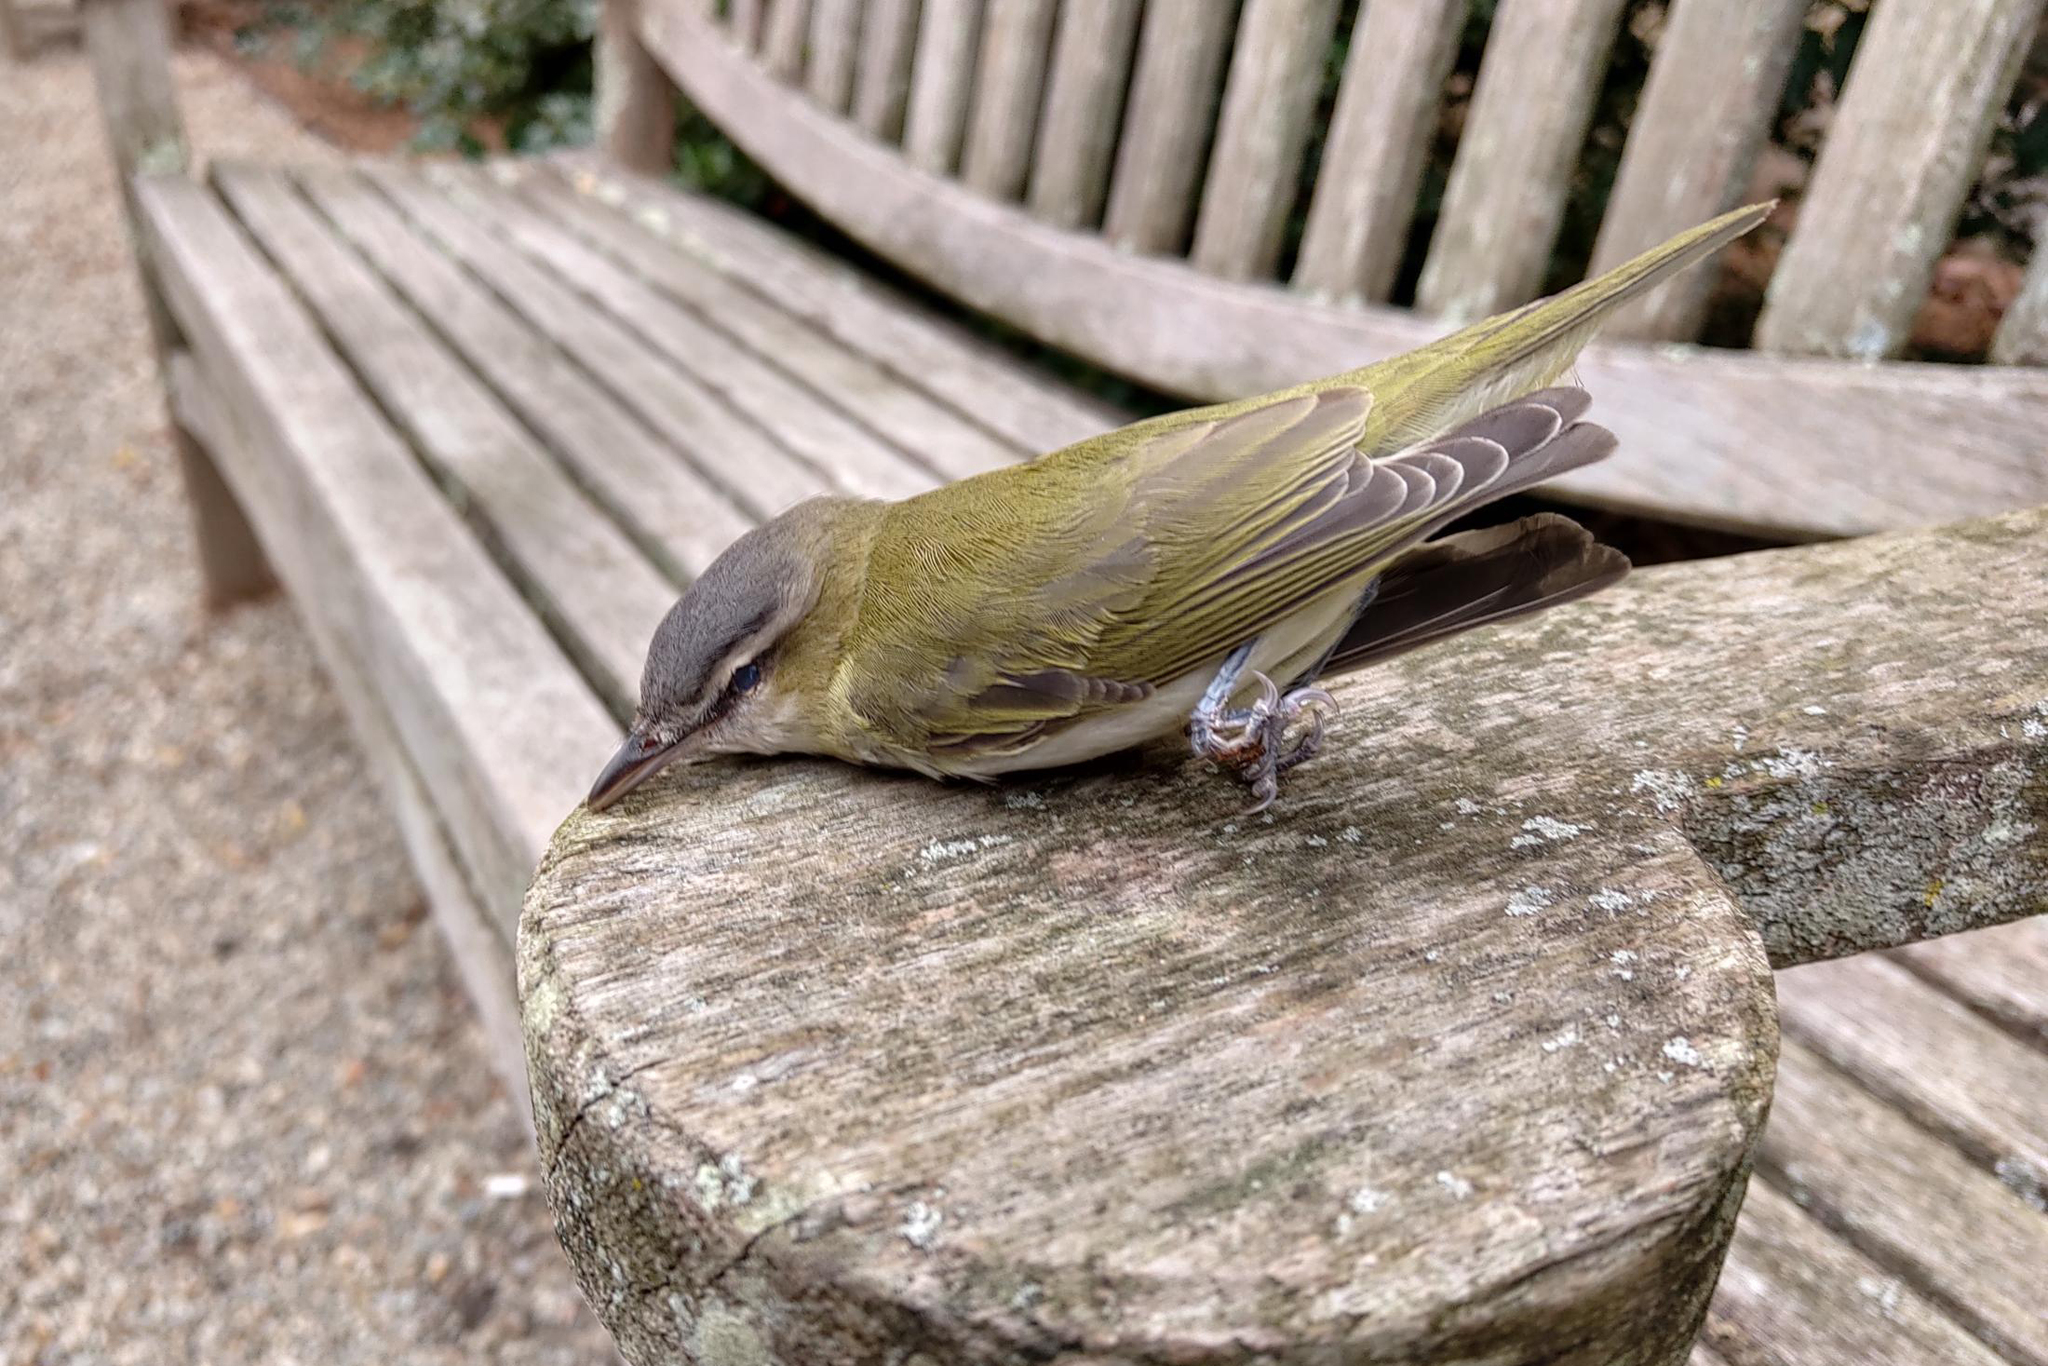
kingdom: Animalia
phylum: Chordata
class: Aves
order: Passeriformes
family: Vireonidae
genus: Vireo
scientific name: Vireo olivaceus
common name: Red-eyed vireo
